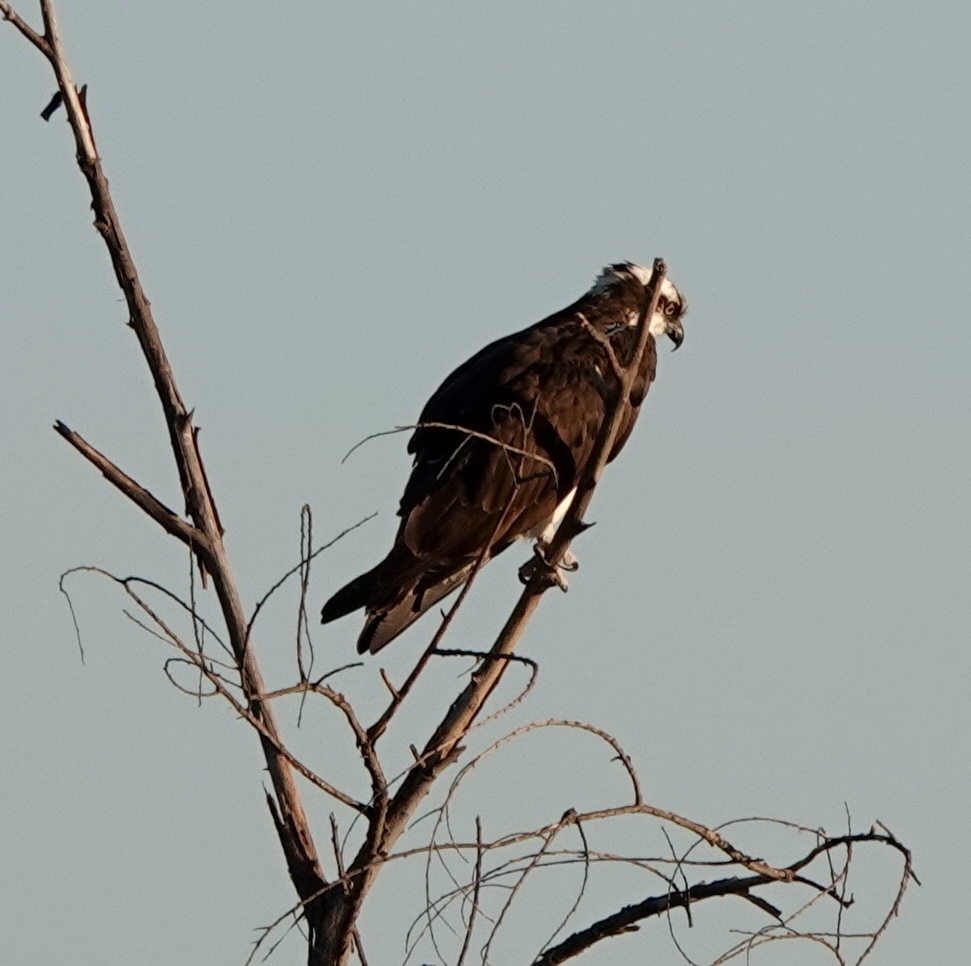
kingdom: Animalia
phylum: Chordata
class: Aves
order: Accipitriformes
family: Pandionidae
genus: Pandion
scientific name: Pandion haliaetus
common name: Osprey
